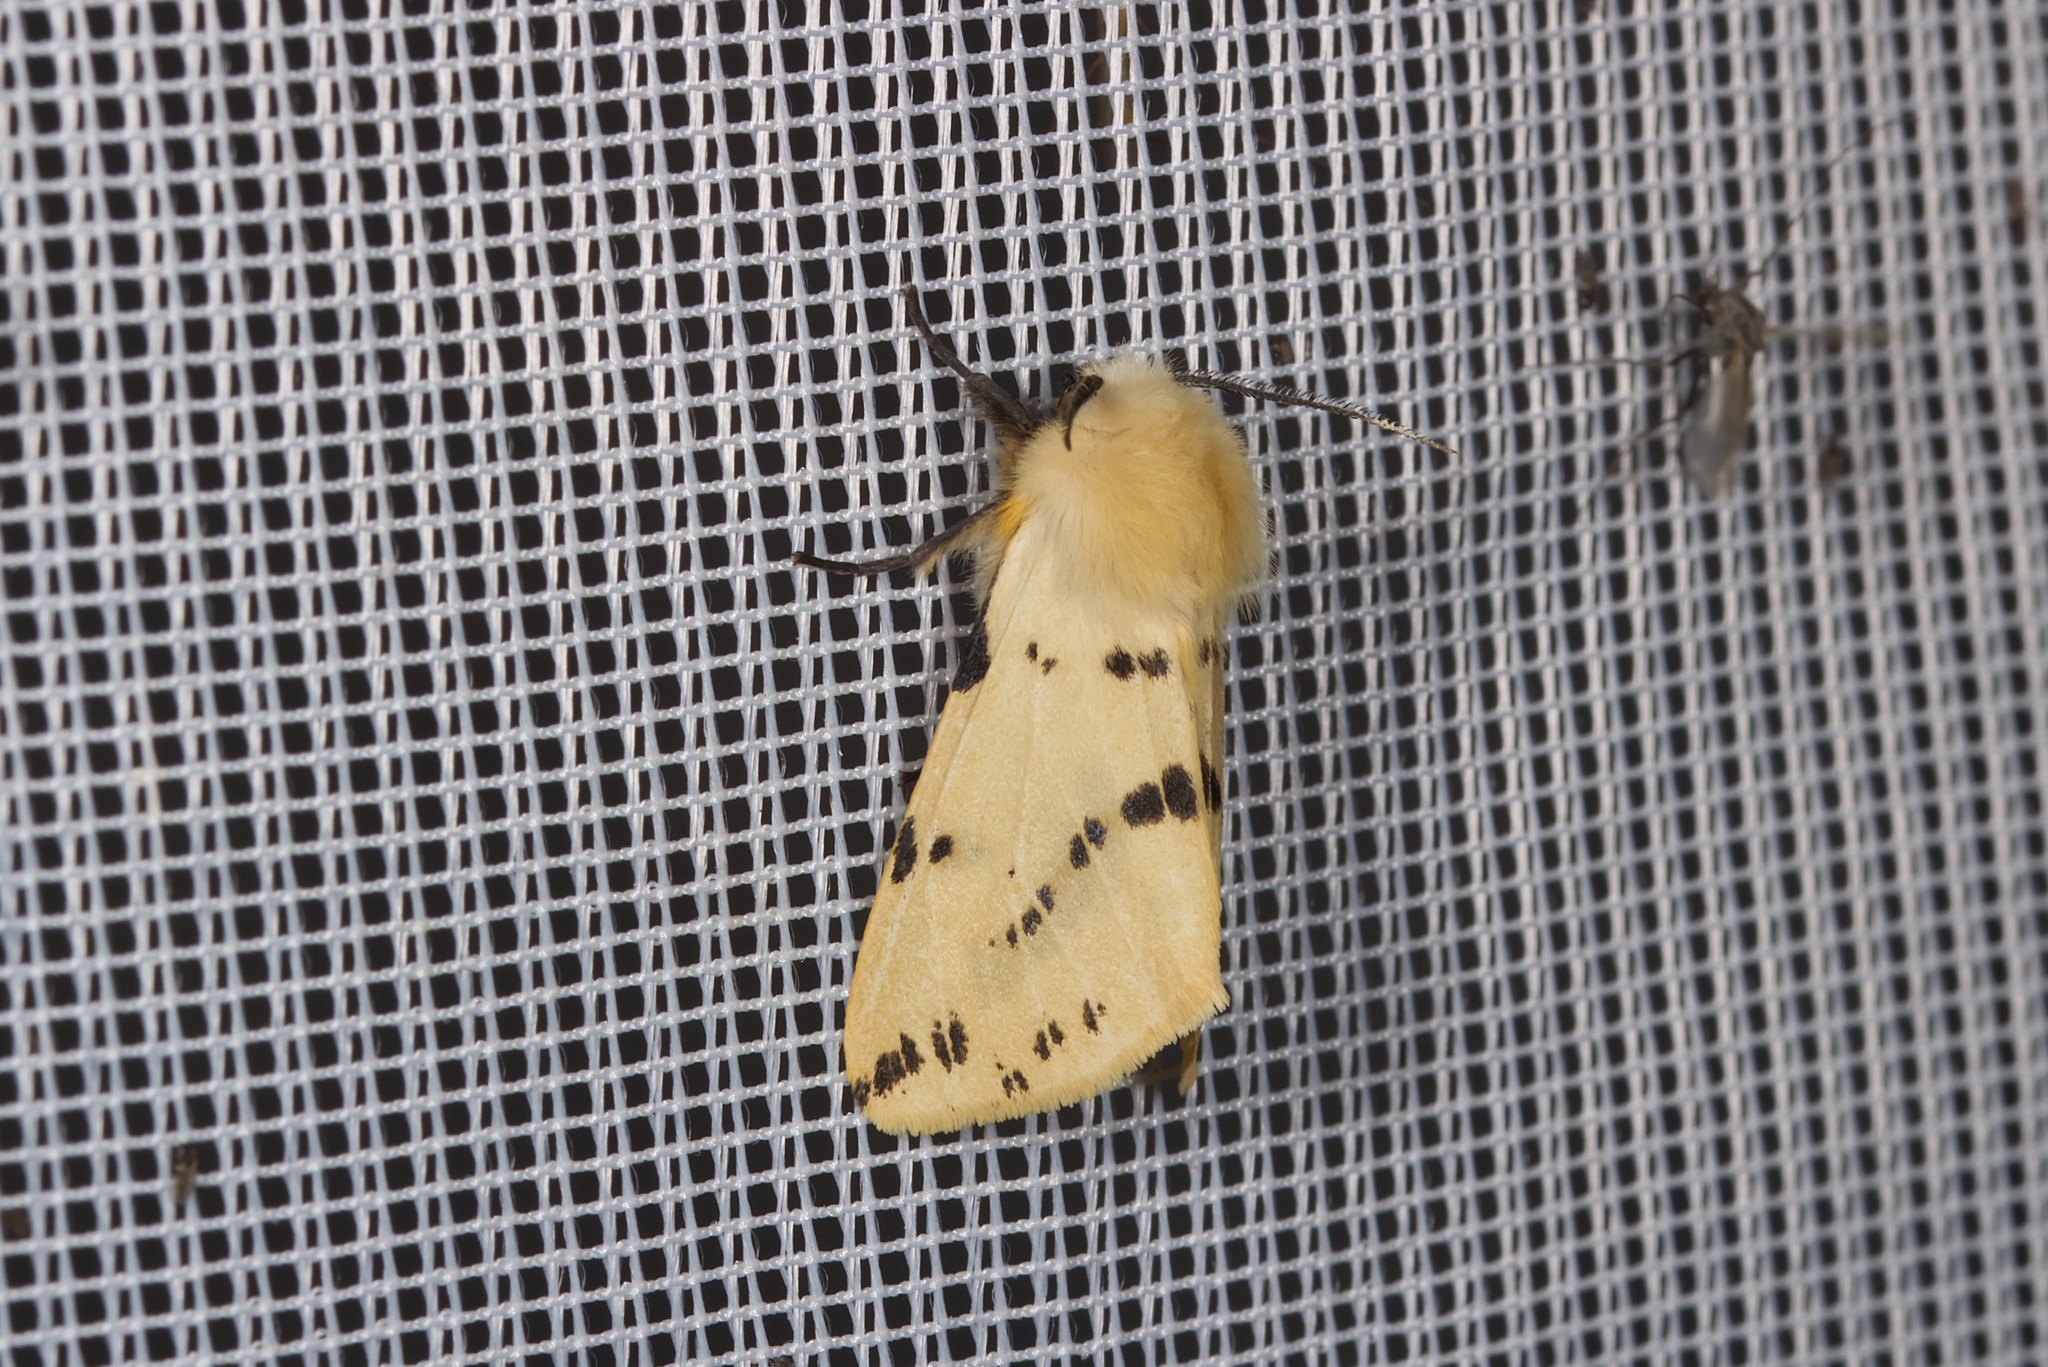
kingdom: Animalia
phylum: Arthropoda
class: Insecta
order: Lepidoptera
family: Erebidae
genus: Spilarctia
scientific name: Spilarctia lutea
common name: Buff ermine
